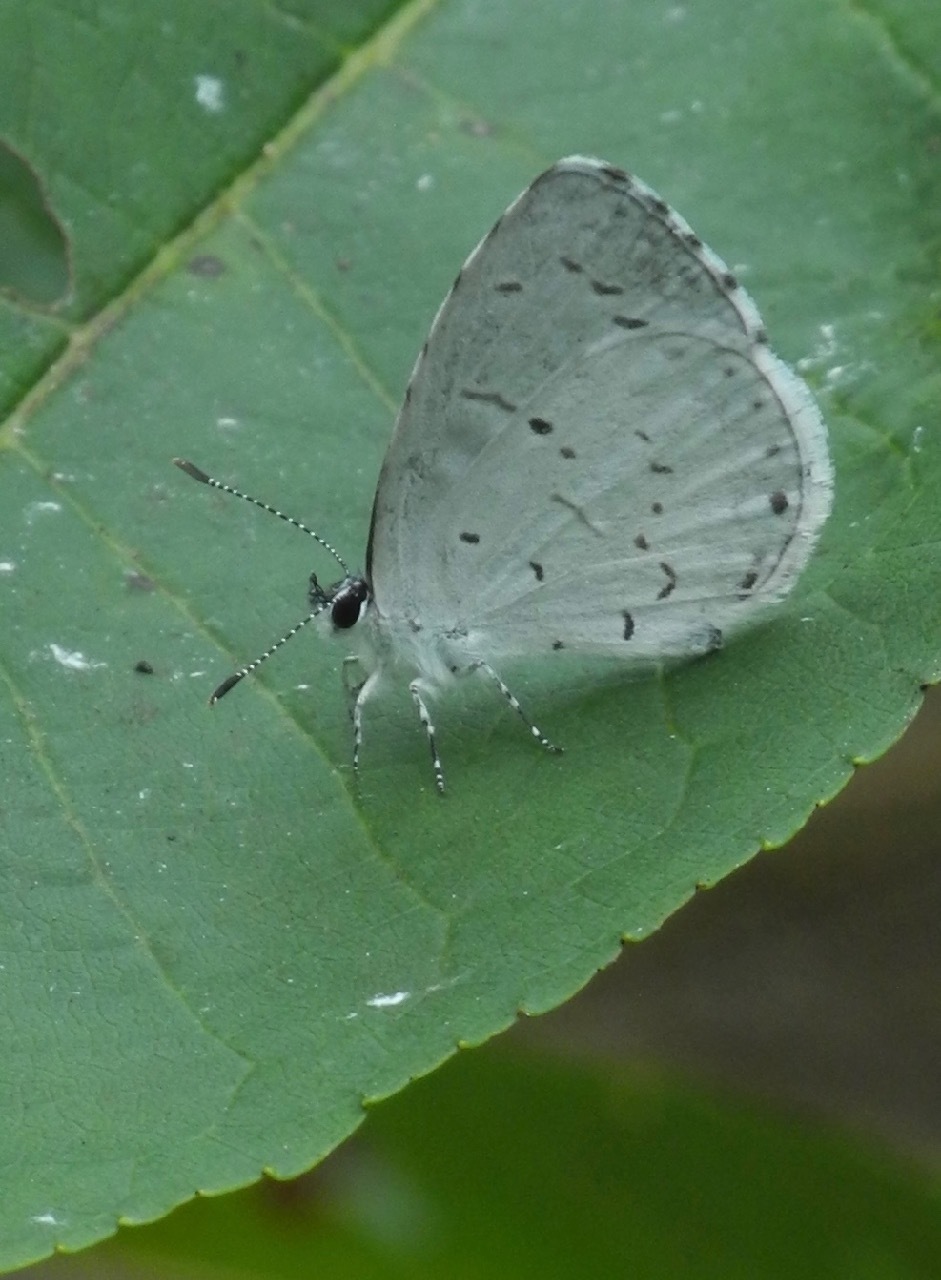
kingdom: Animalia
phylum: Arthropoda
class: Insecta
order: Lepidoptera
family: Lycaenidae
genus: Cyaniris
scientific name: Cyaniris neglecta
